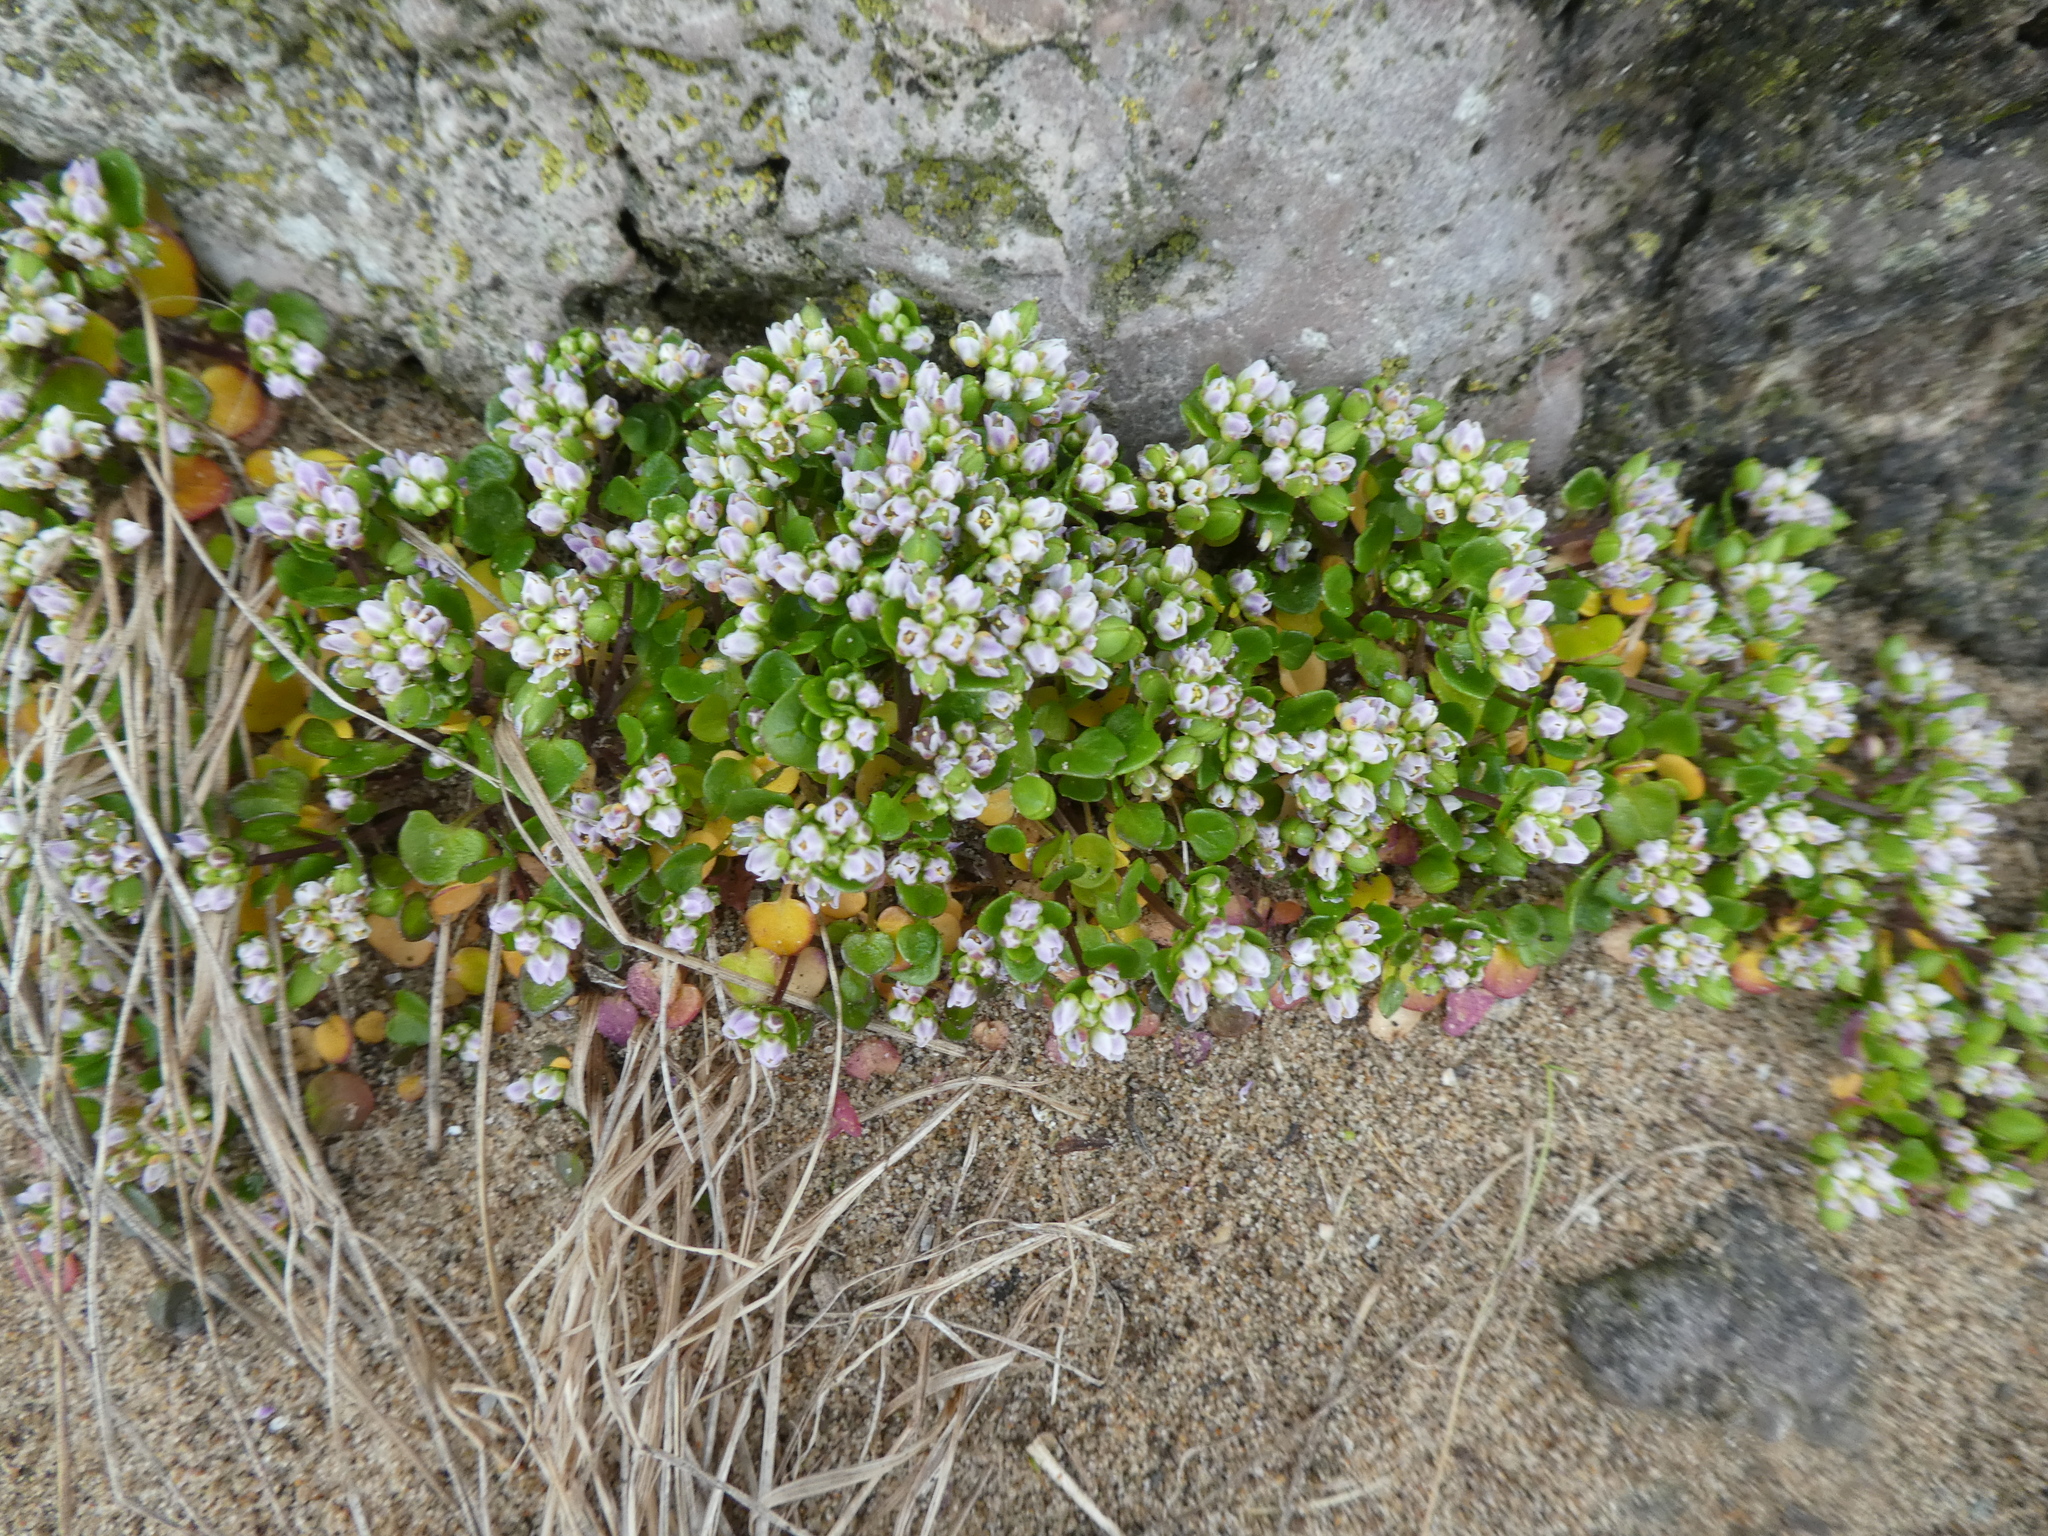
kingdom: Plantae
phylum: Tracheophyta
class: Magnoliopsida
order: Brassicales
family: Brassicaceae
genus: Cochlearia
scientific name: Cochlearia danica
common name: Early scurvygrass
